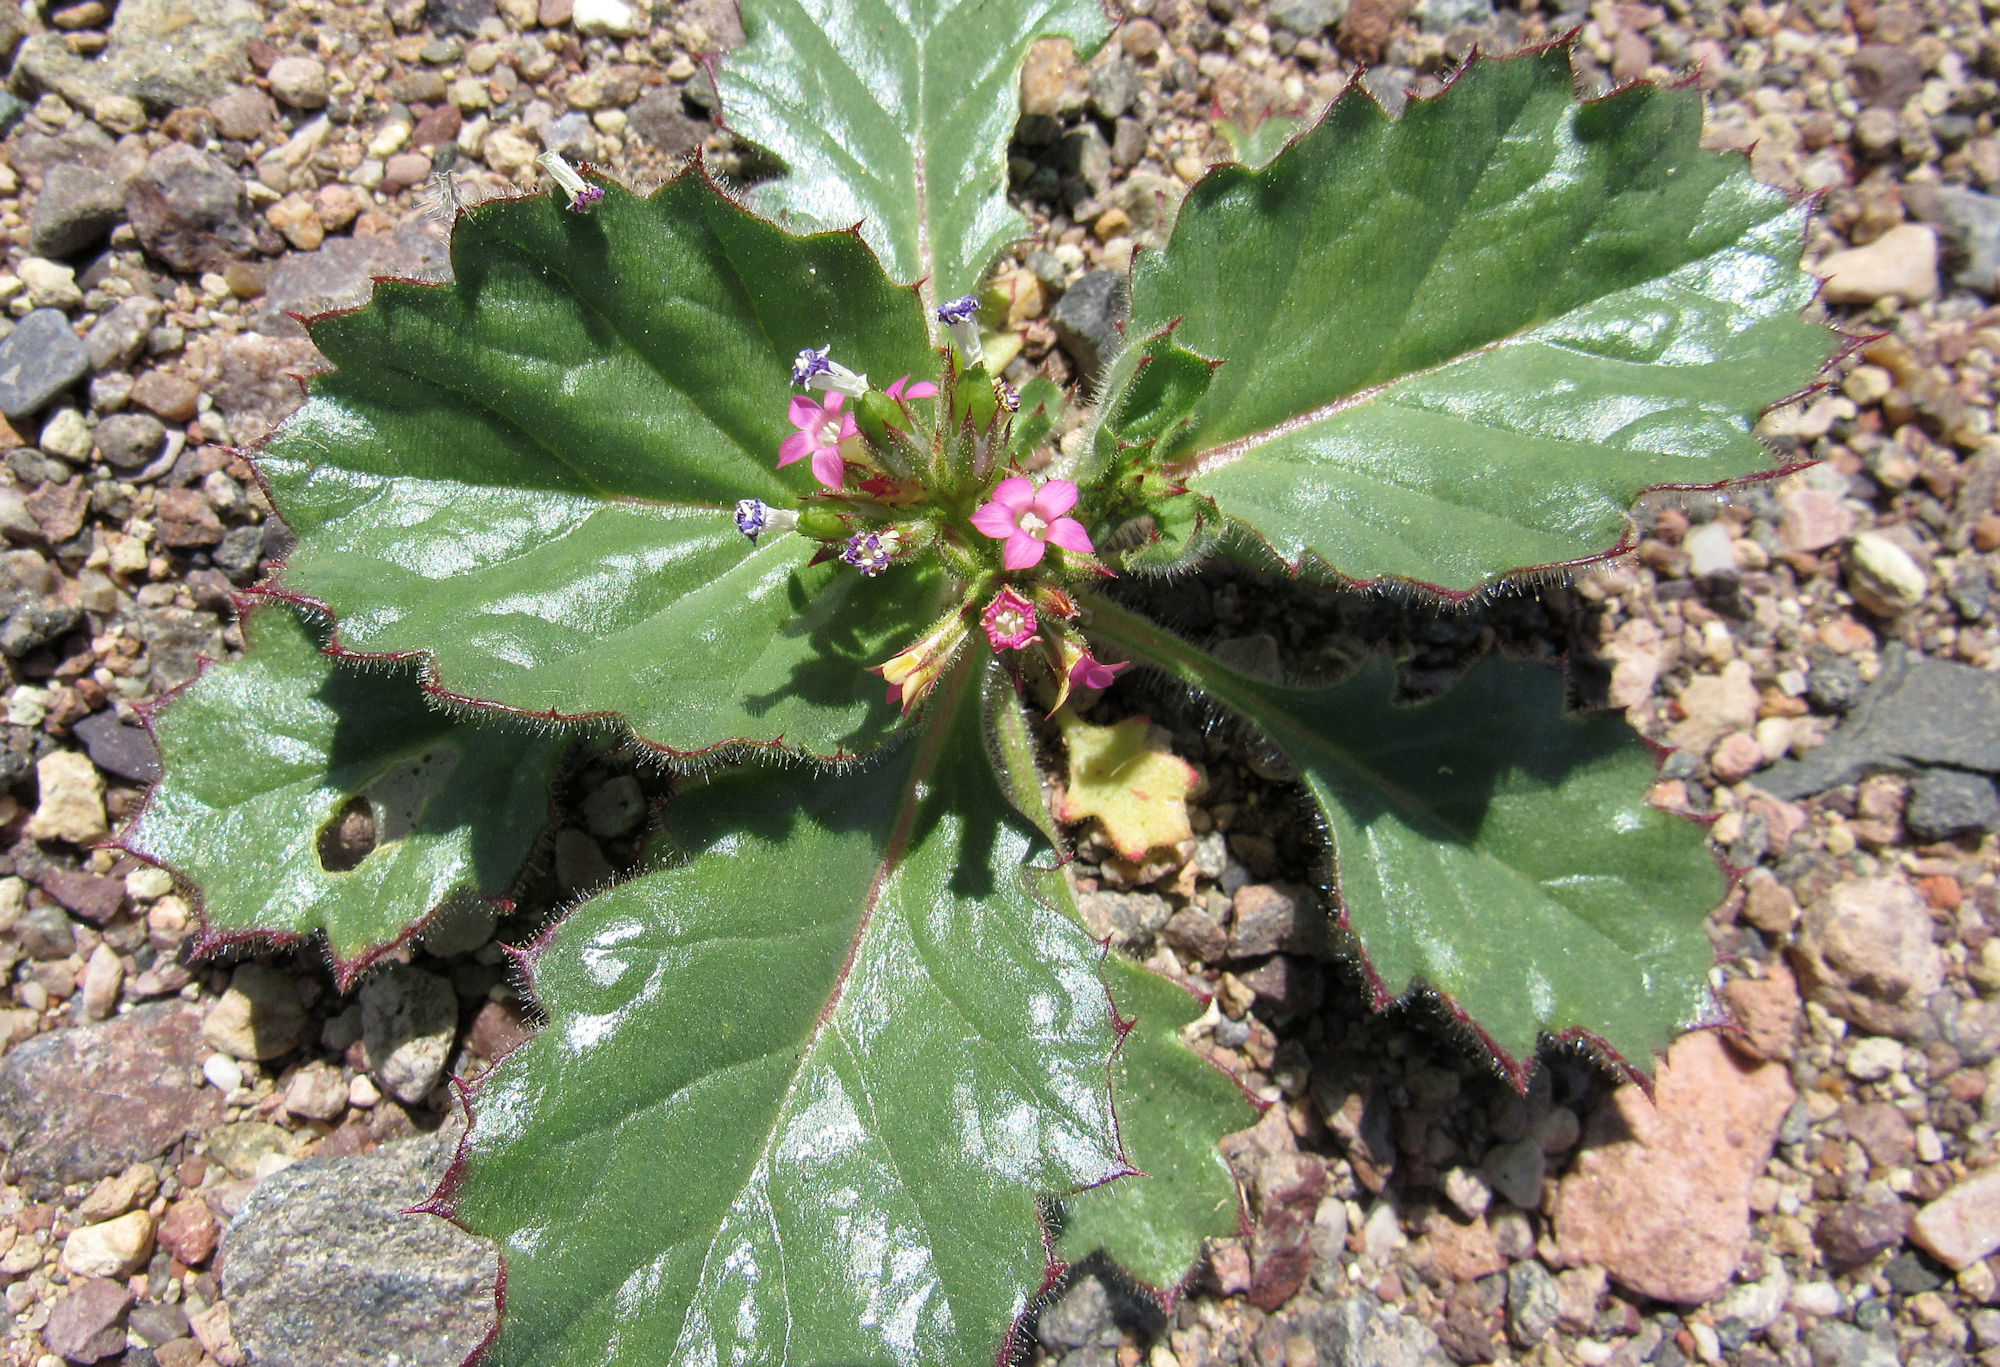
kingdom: Plantae
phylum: Tracheophyta
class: Magnoliopsida
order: Ericales
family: Polemoniaceae
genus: Aliciella
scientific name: Aliciella latifolia
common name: Broad-leaf gilia
